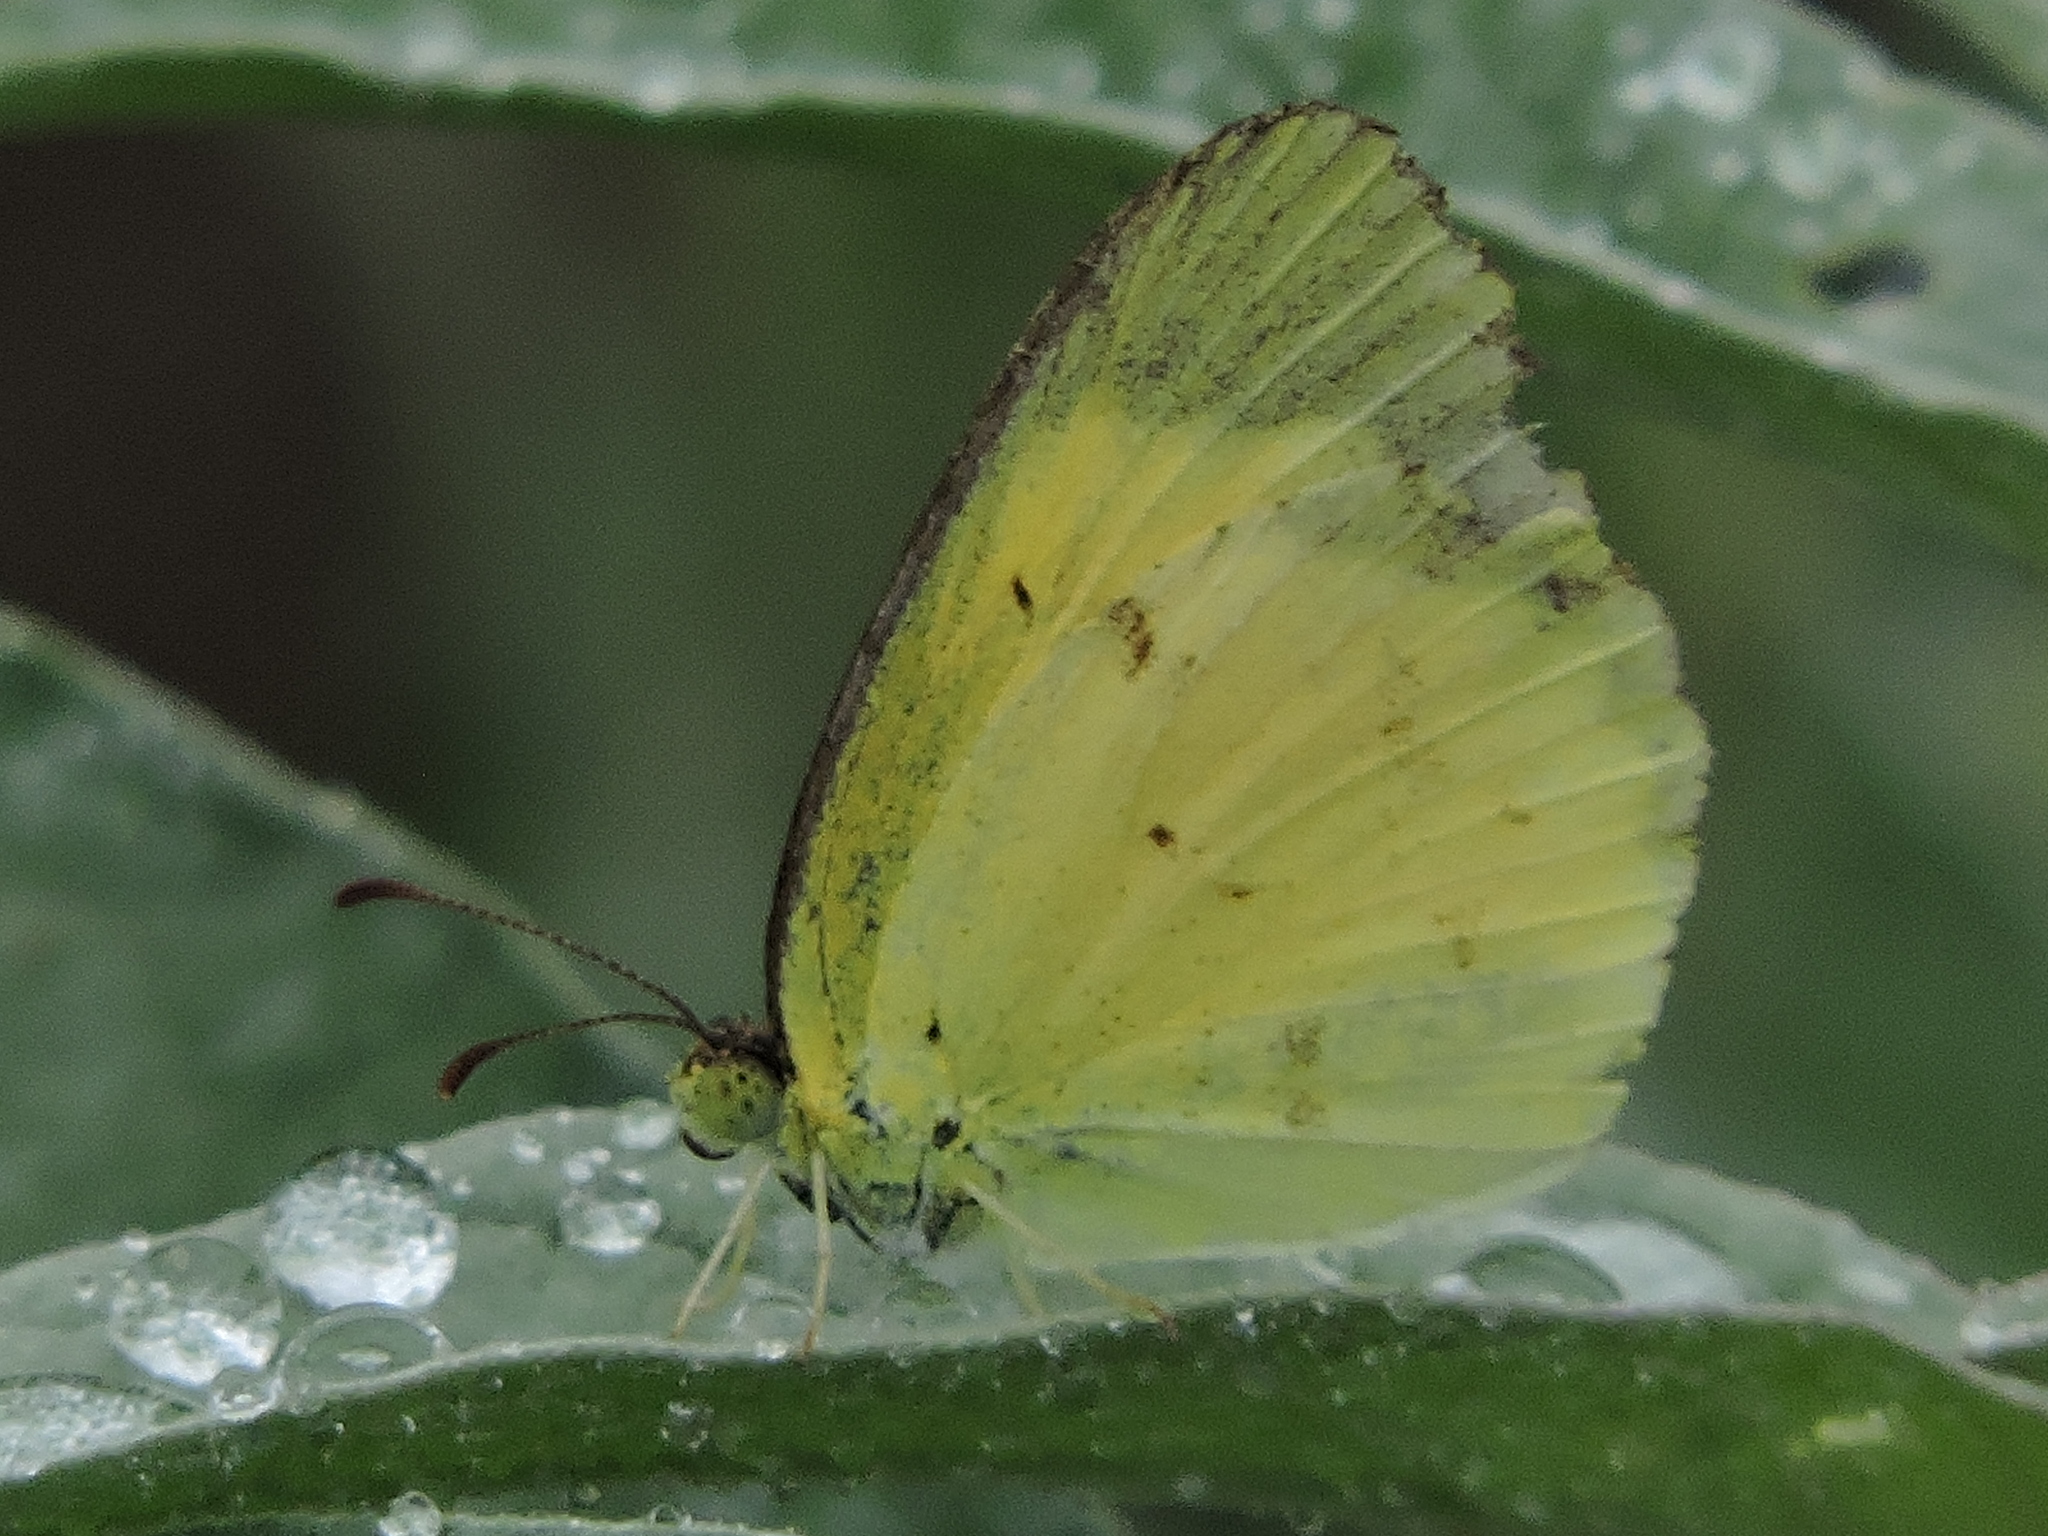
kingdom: Animalia
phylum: Arthropoda
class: Insecta
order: Lepidoptera
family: Pieridae
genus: Pyrisitia
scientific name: Pyrisitia lisa
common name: Little yellow
